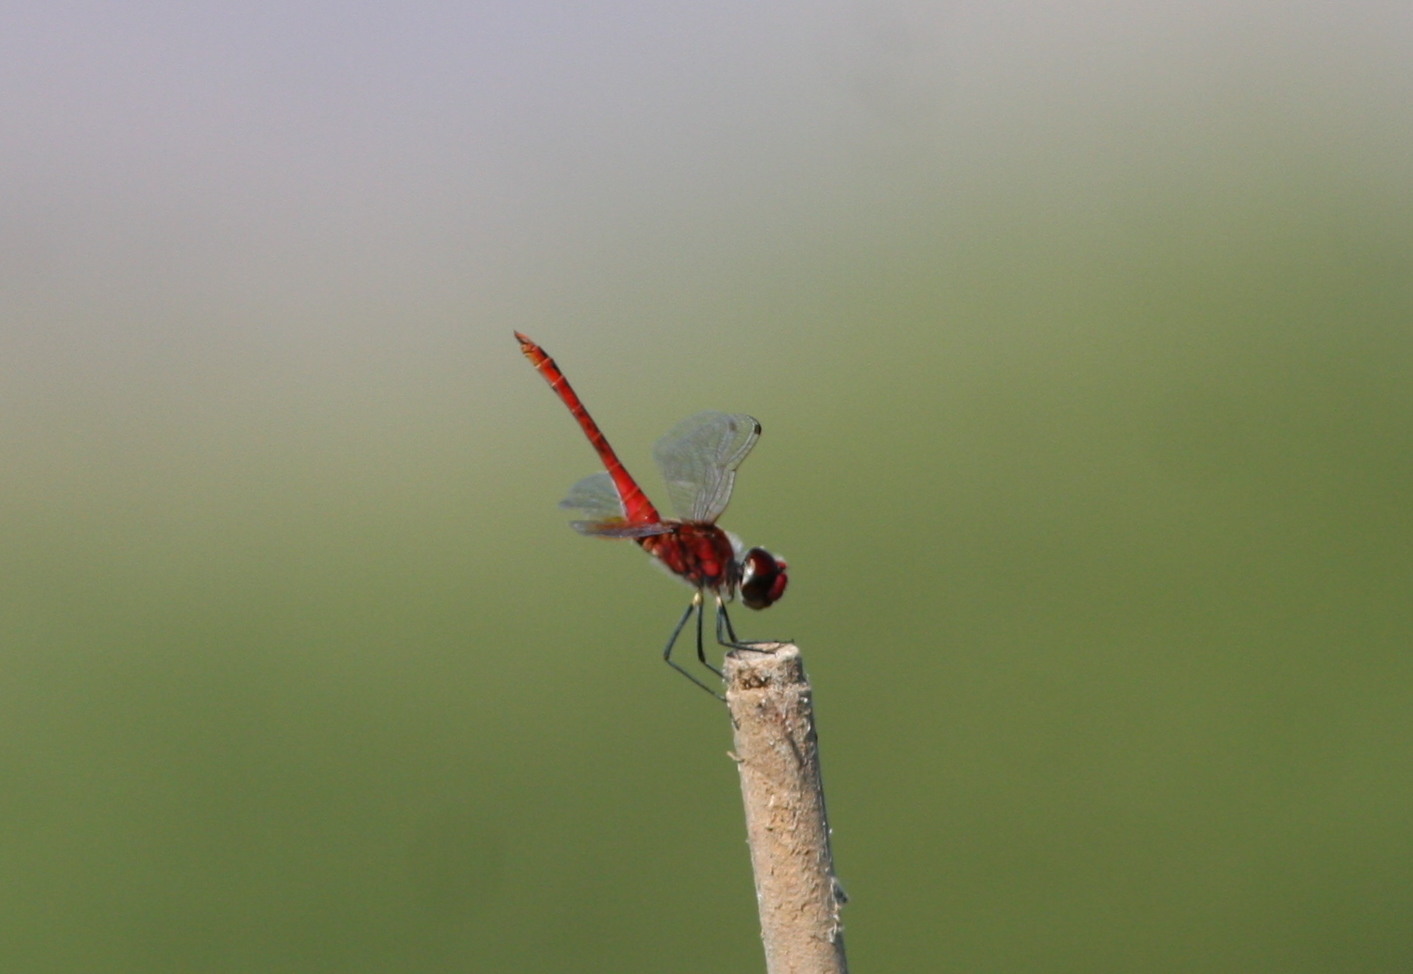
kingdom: Animalia
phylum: Arthropoda
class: Insecta
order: Odonata
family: Libellulidae
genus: Macrodiplax
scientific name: Macrodiplax cora
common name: Coastal glider
